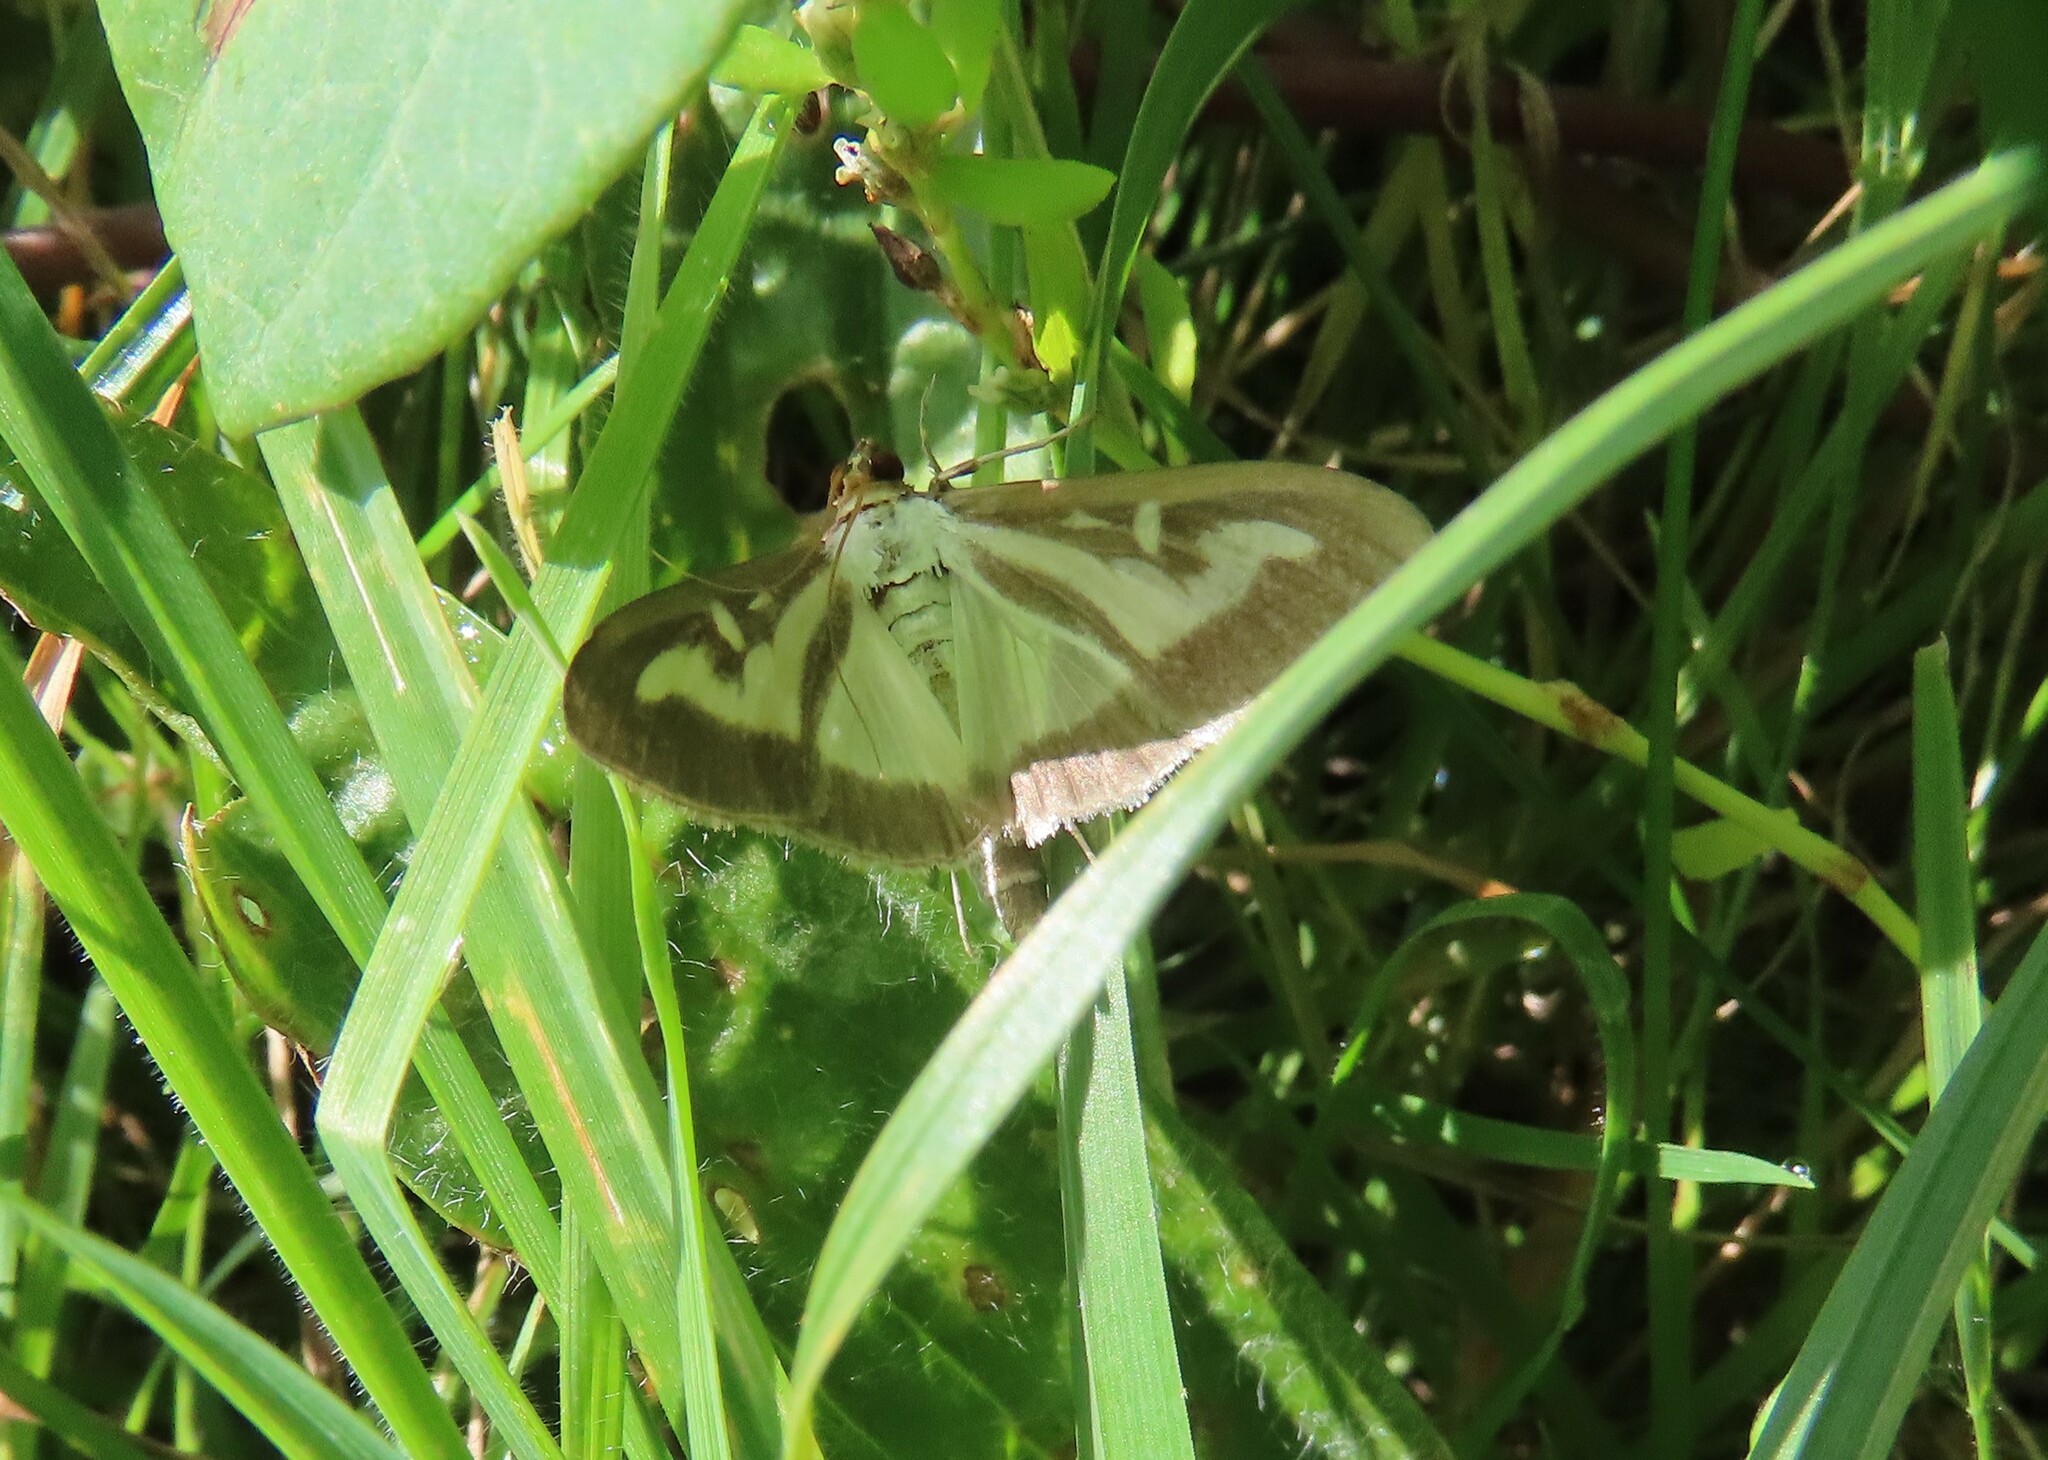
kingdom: Animalia
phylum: Arthropoda
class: Insecta
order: Lepidoptera
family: Crambidae
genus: Cydalima
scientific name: Cydalima perspectalis
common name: Box tree moth
